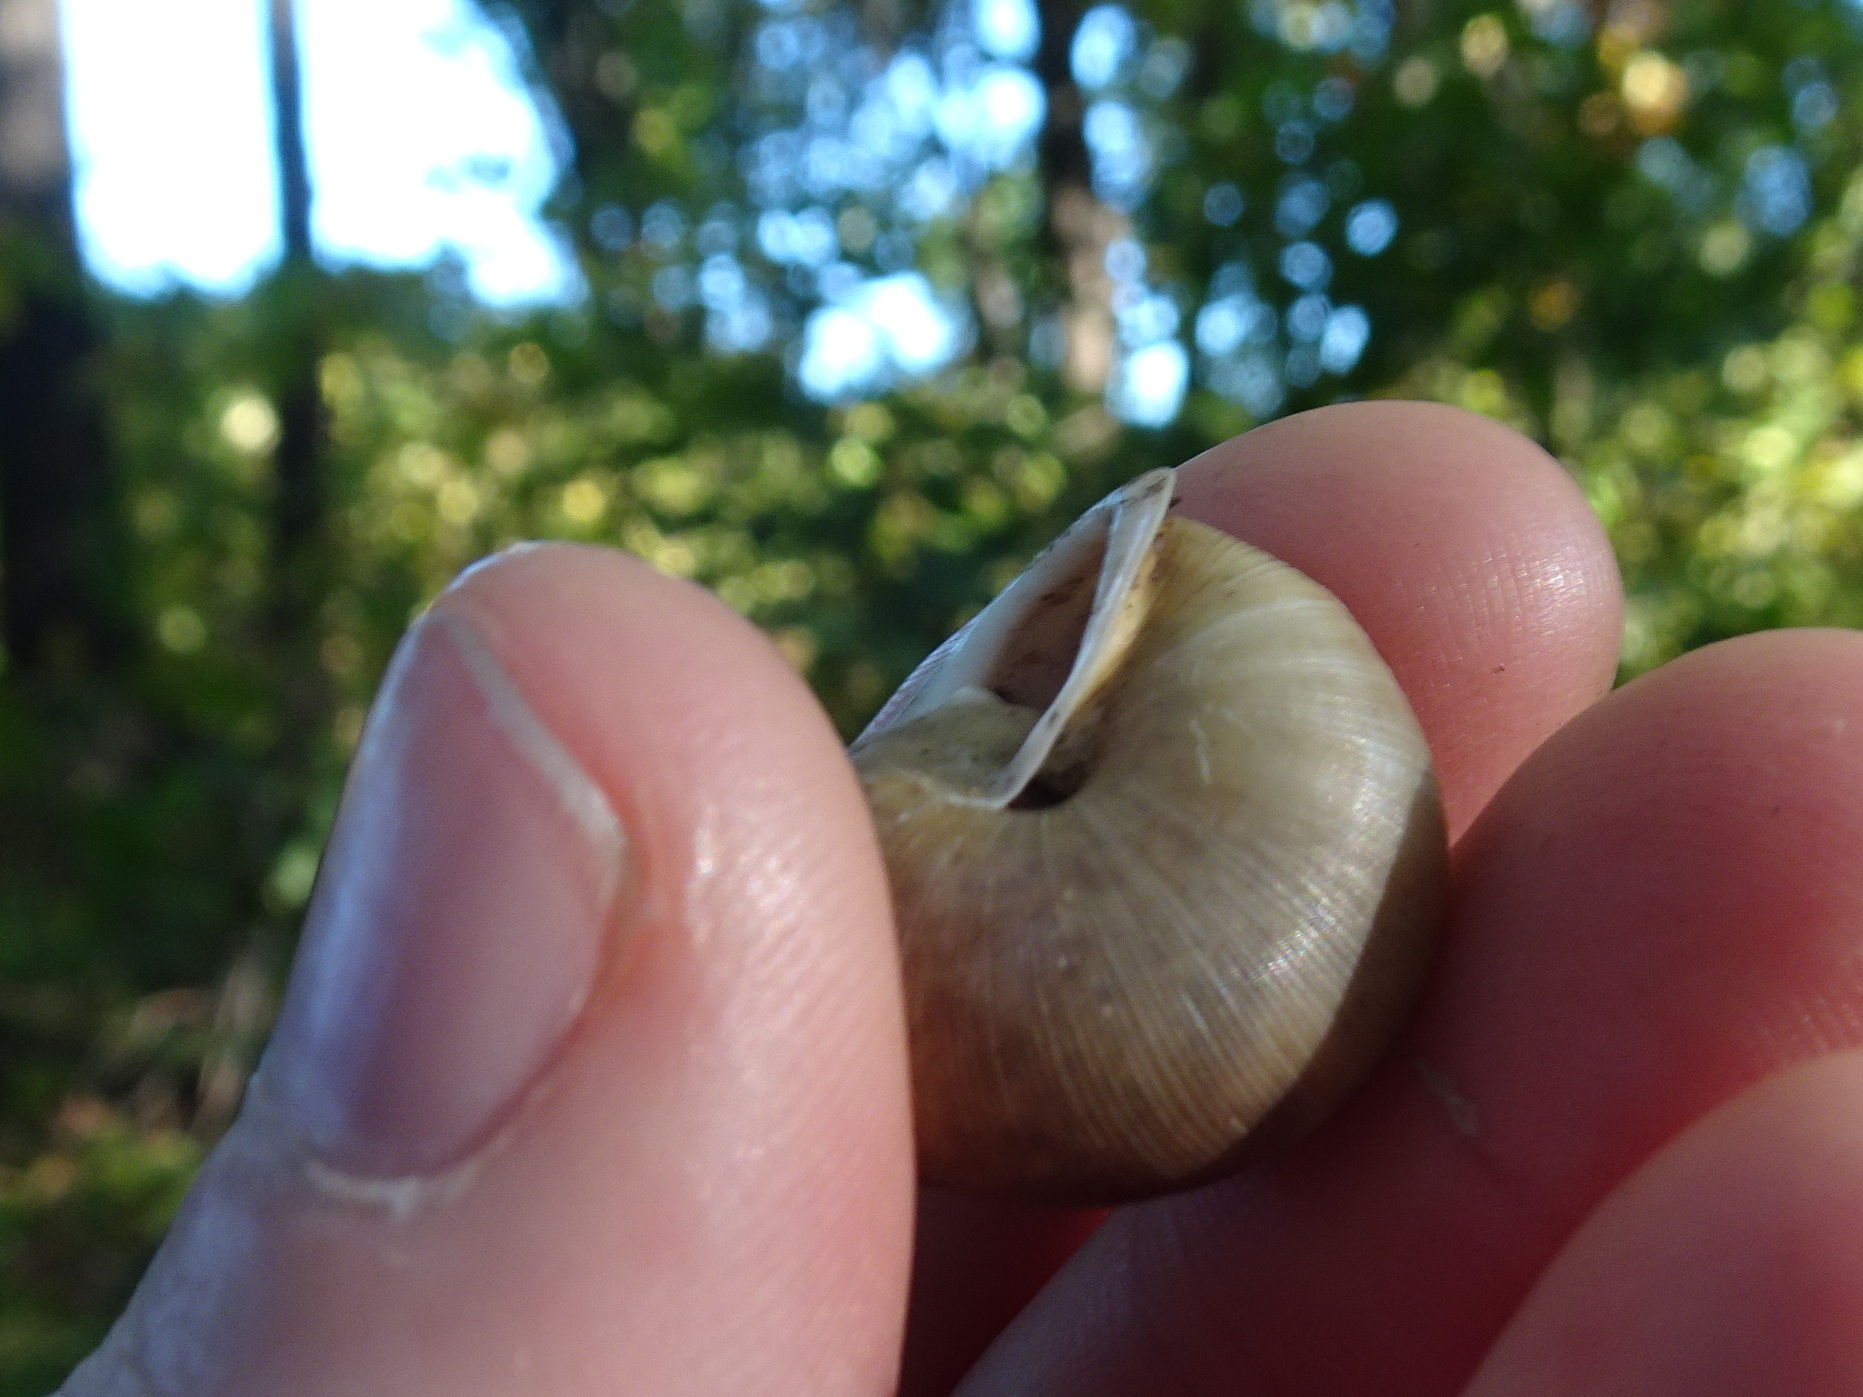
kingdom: Animalia
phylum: Mollusca
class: Gastropoda
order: Stylommatophora
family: Polygyridae
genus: Mesodon
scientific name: Mesodon thyroidus
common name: White-lip globe
